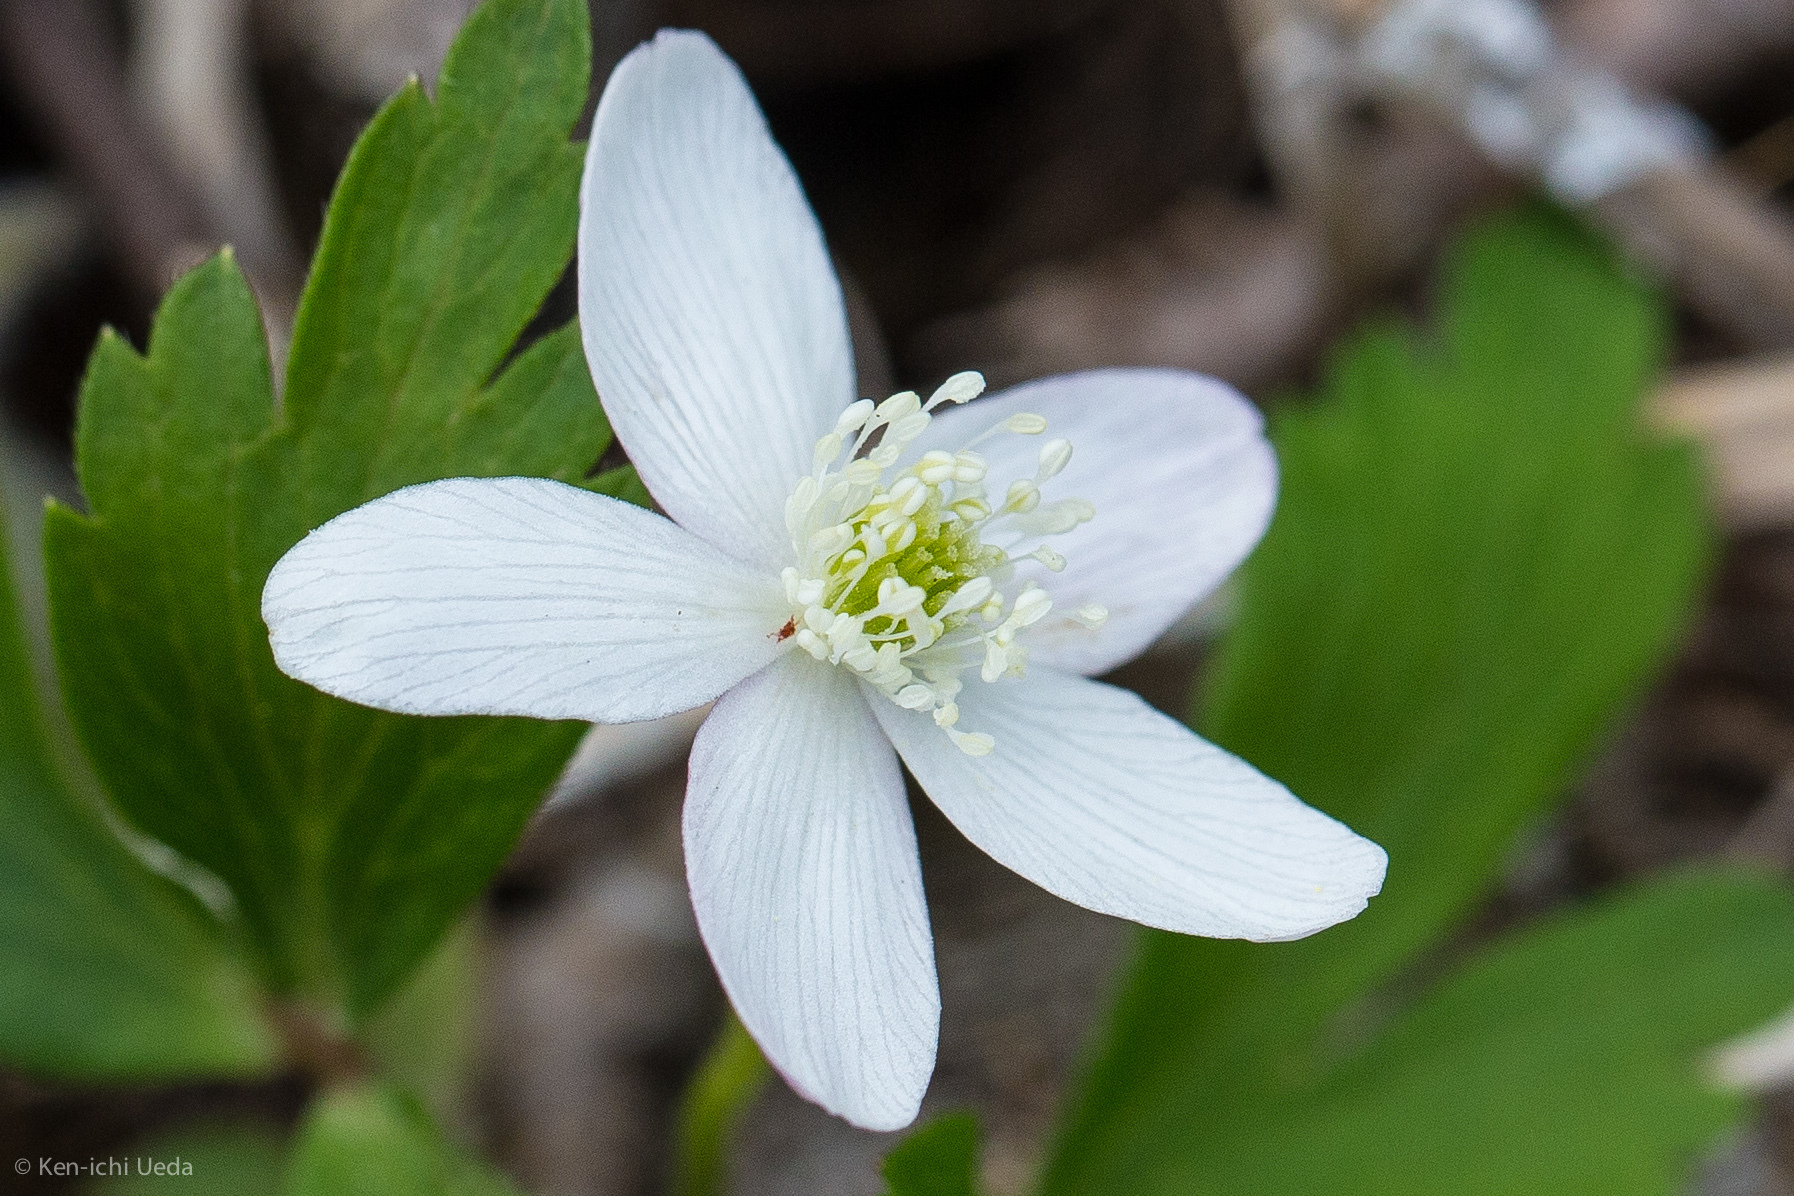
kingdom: Plantae
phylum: Tracheophyta
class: Magnoliopsida
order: Ranunculales
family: Ranunculaceae
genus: Anemone
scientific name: Anemone quinquefolia
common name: Wood anemone
